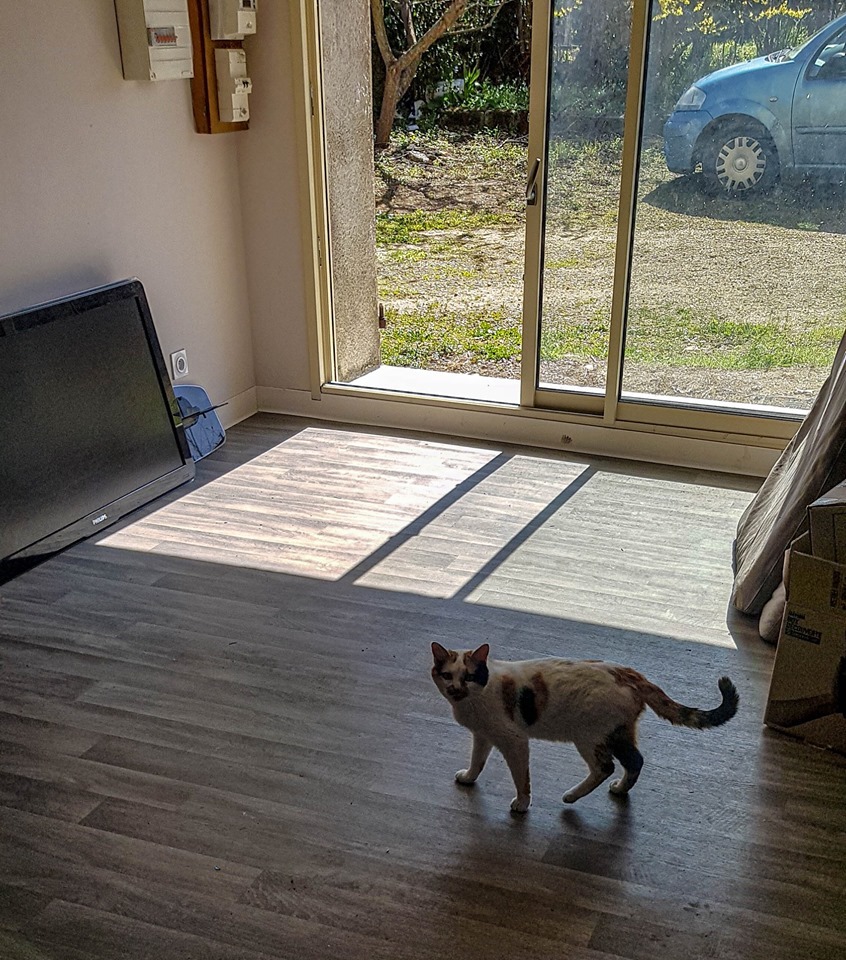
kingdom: Animalia
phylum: Chordata
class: Mammalia
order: Carnivora
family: Felidae
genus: Felis
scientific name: Felis catus
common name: Domestic cat
